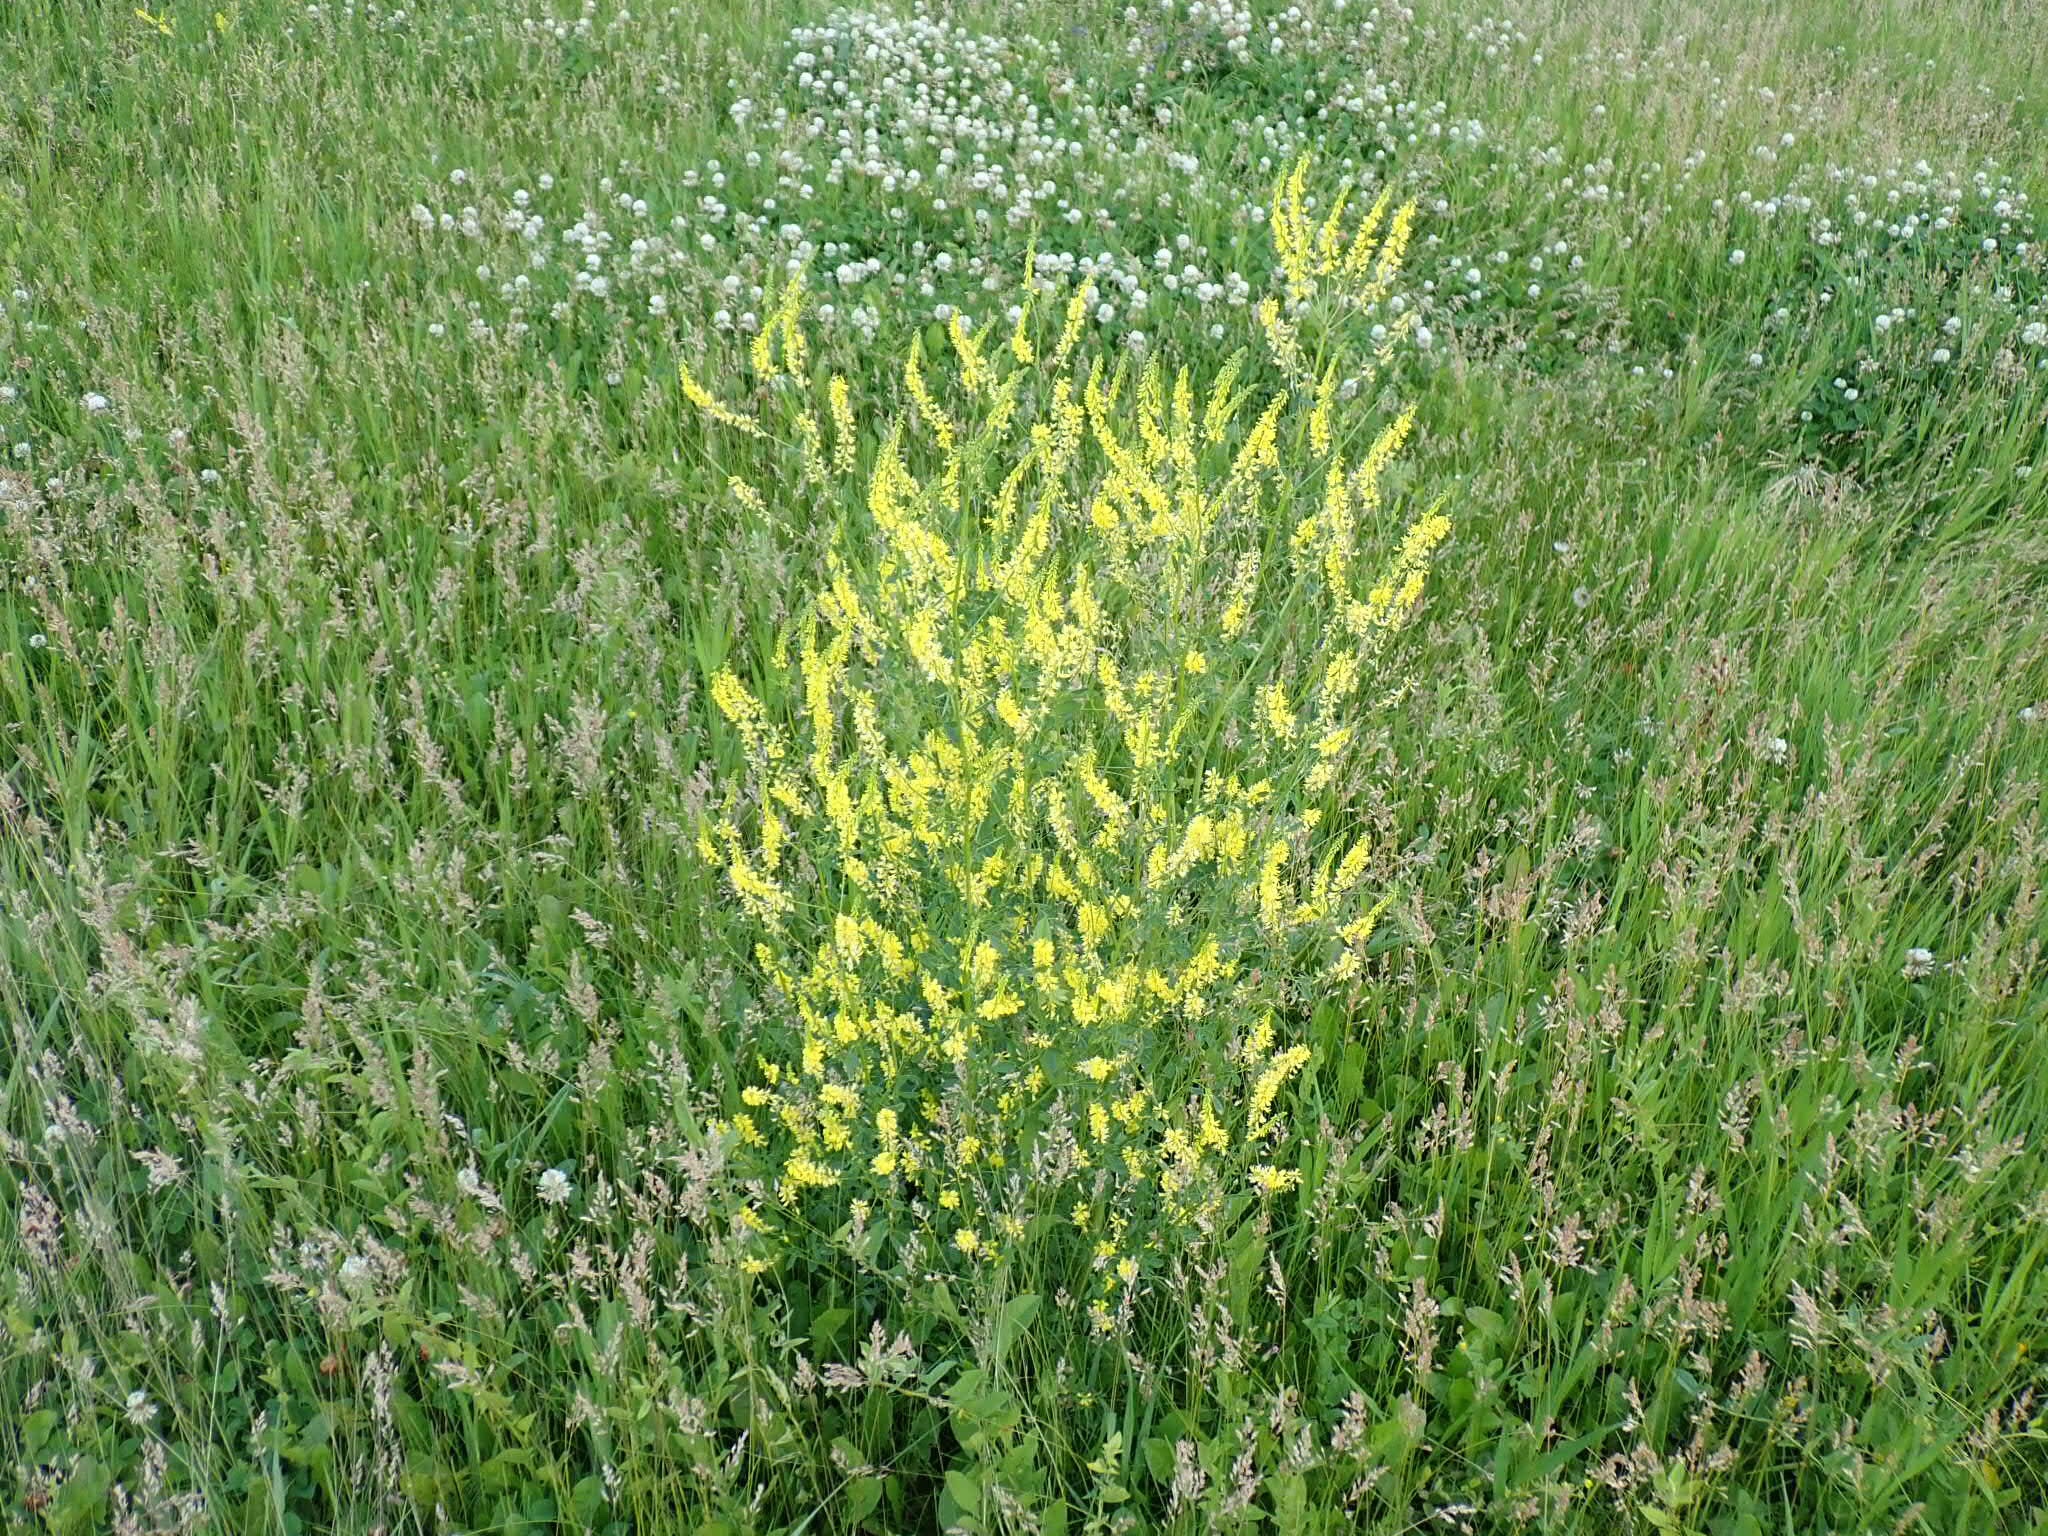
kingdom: Plantae
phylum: Tracheophyta
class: Magnoliopsida
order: Fabales
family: Fabaceae
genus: Melilotus
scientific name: Melilotus officinalis
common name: Sweetclover
